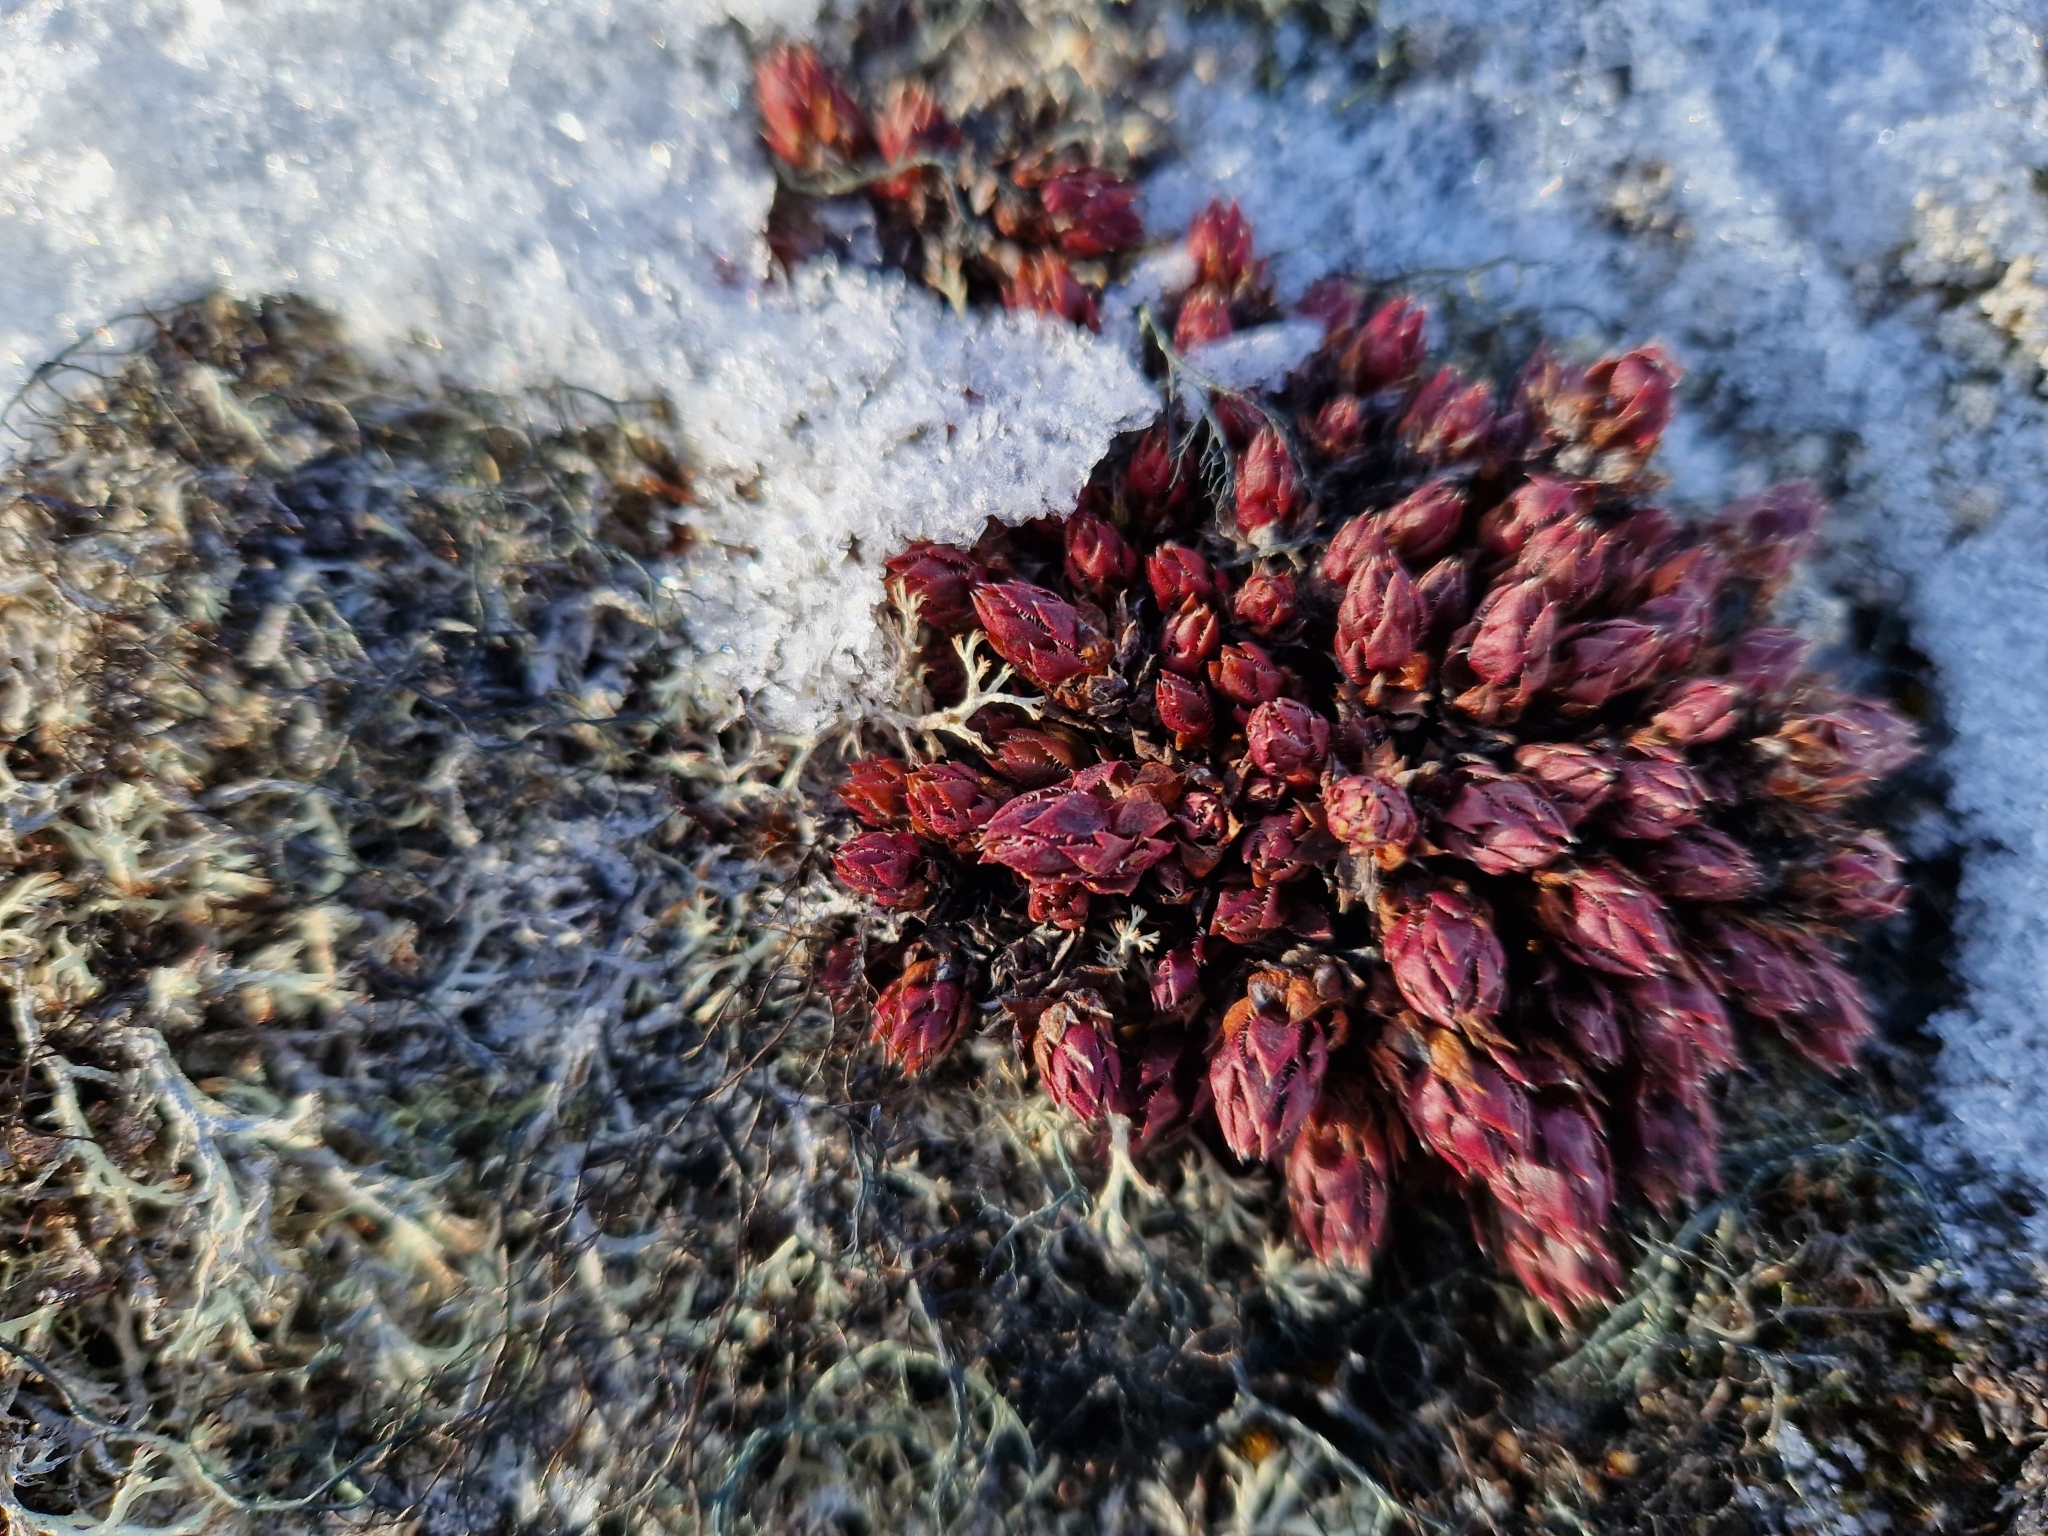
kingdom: Plantae
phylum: Tracheophyta
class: Magnoliopsida
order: Saxifragales
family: Saxifragaceae
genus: Saxifraga
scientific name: Saxifraga tricuspidata
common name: Prickly saxifrage
